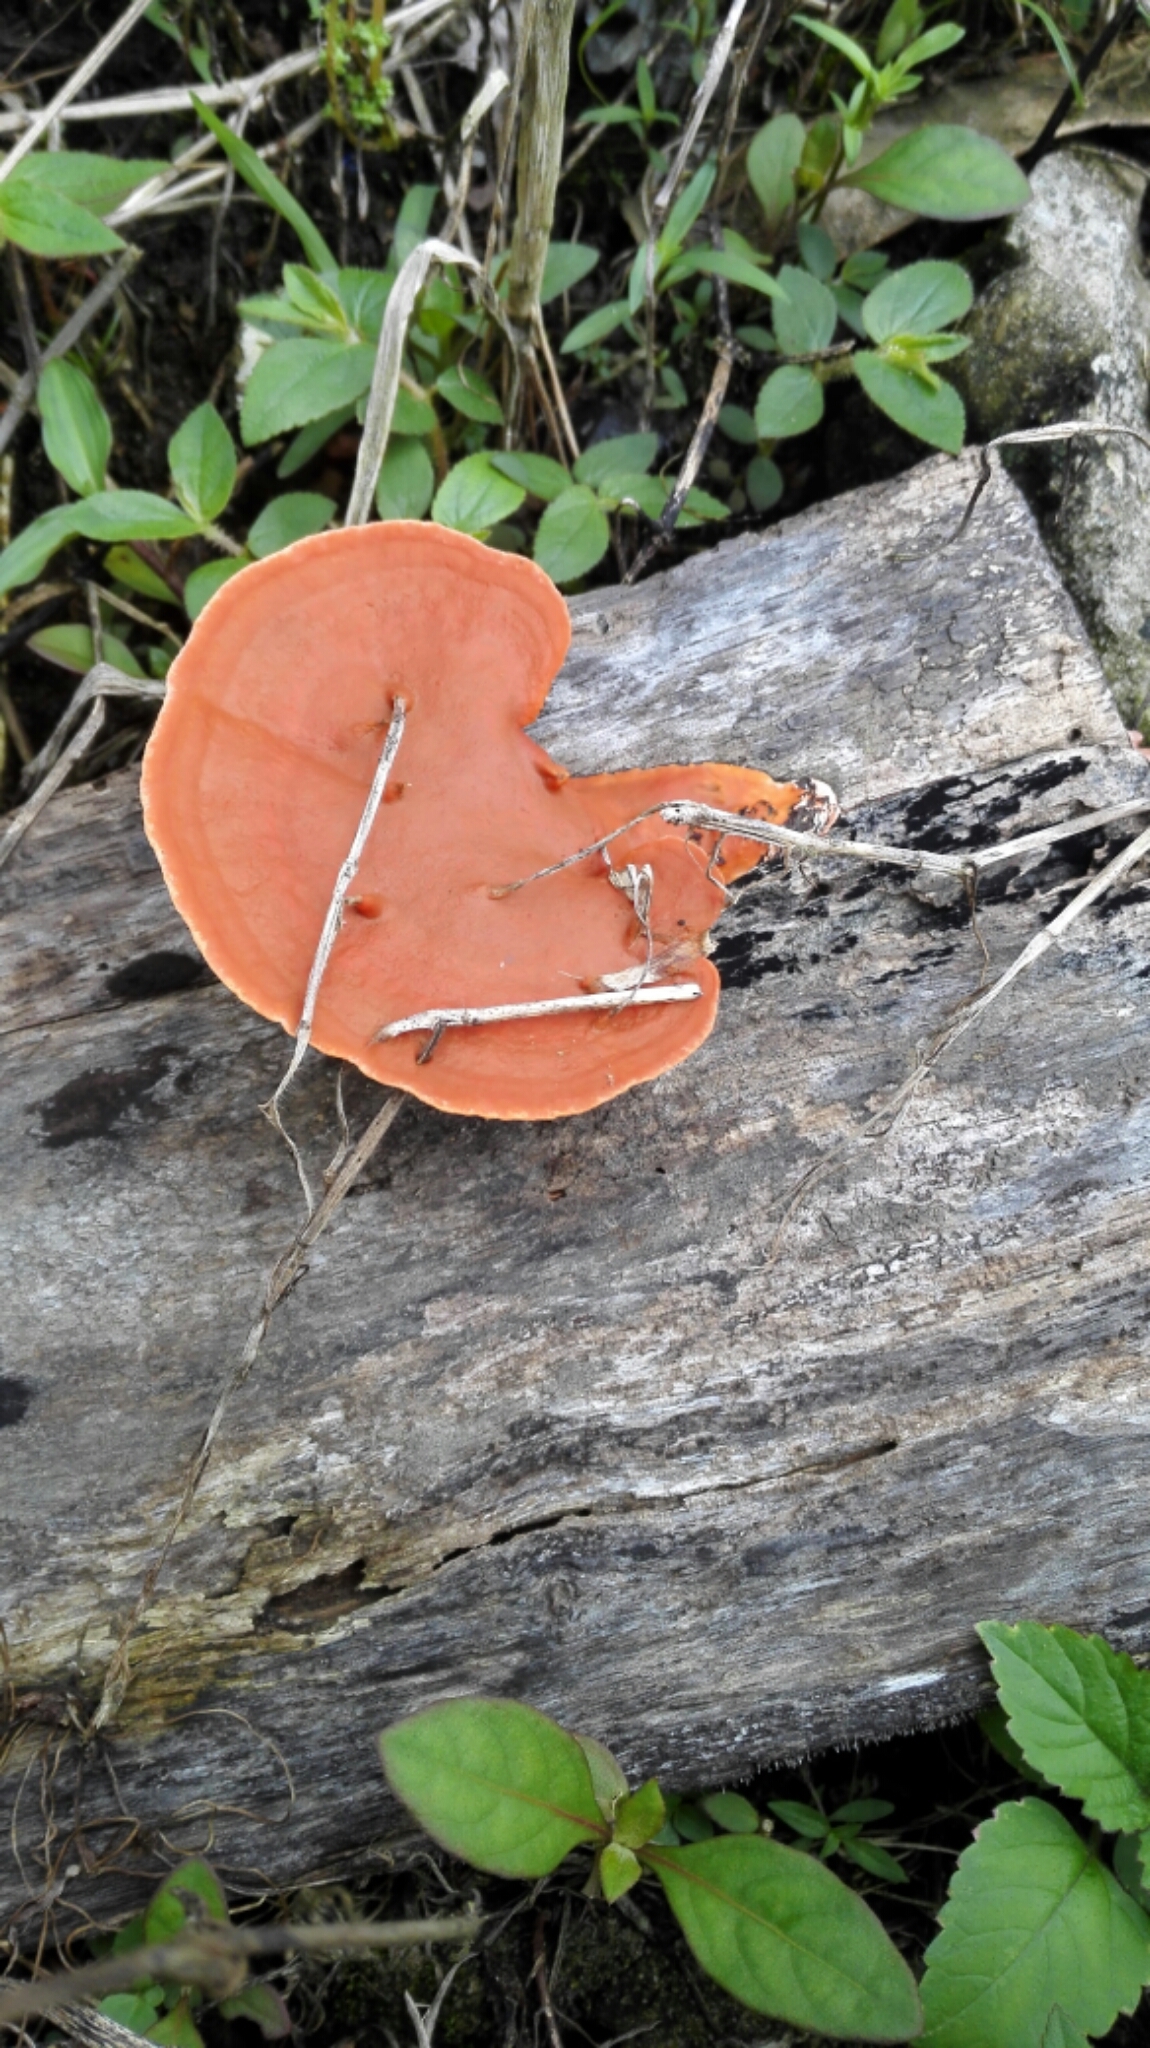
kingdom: Fungi
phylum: Basidiomycota
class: Agaricomycetes
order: Polyporales
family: Polyporaceae
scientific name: Polyporaceae
